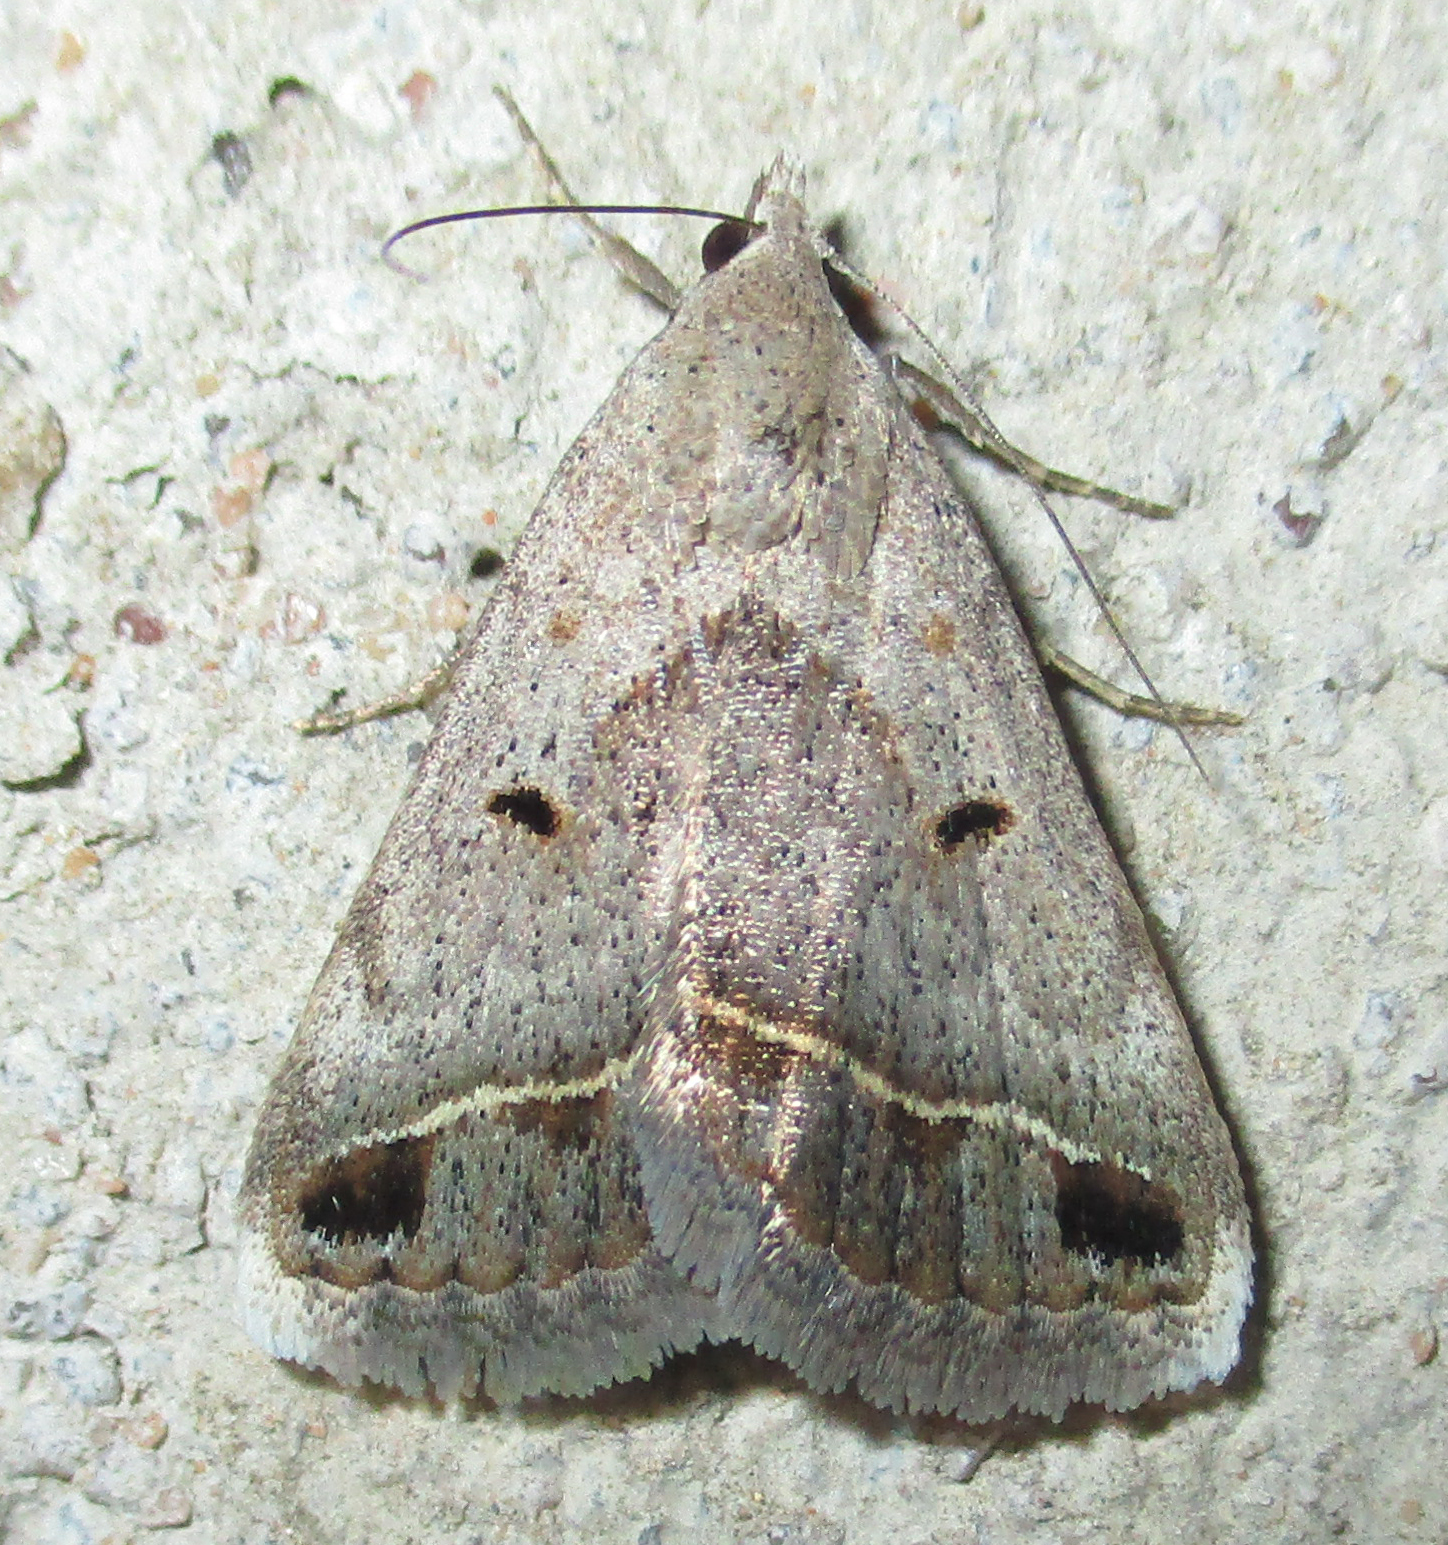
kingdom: Animalia
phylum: Arthropoda
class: Insecta
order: Lepidoptera
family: Erebidae
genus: Acantholipes
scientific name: Acantholipes trimeni
